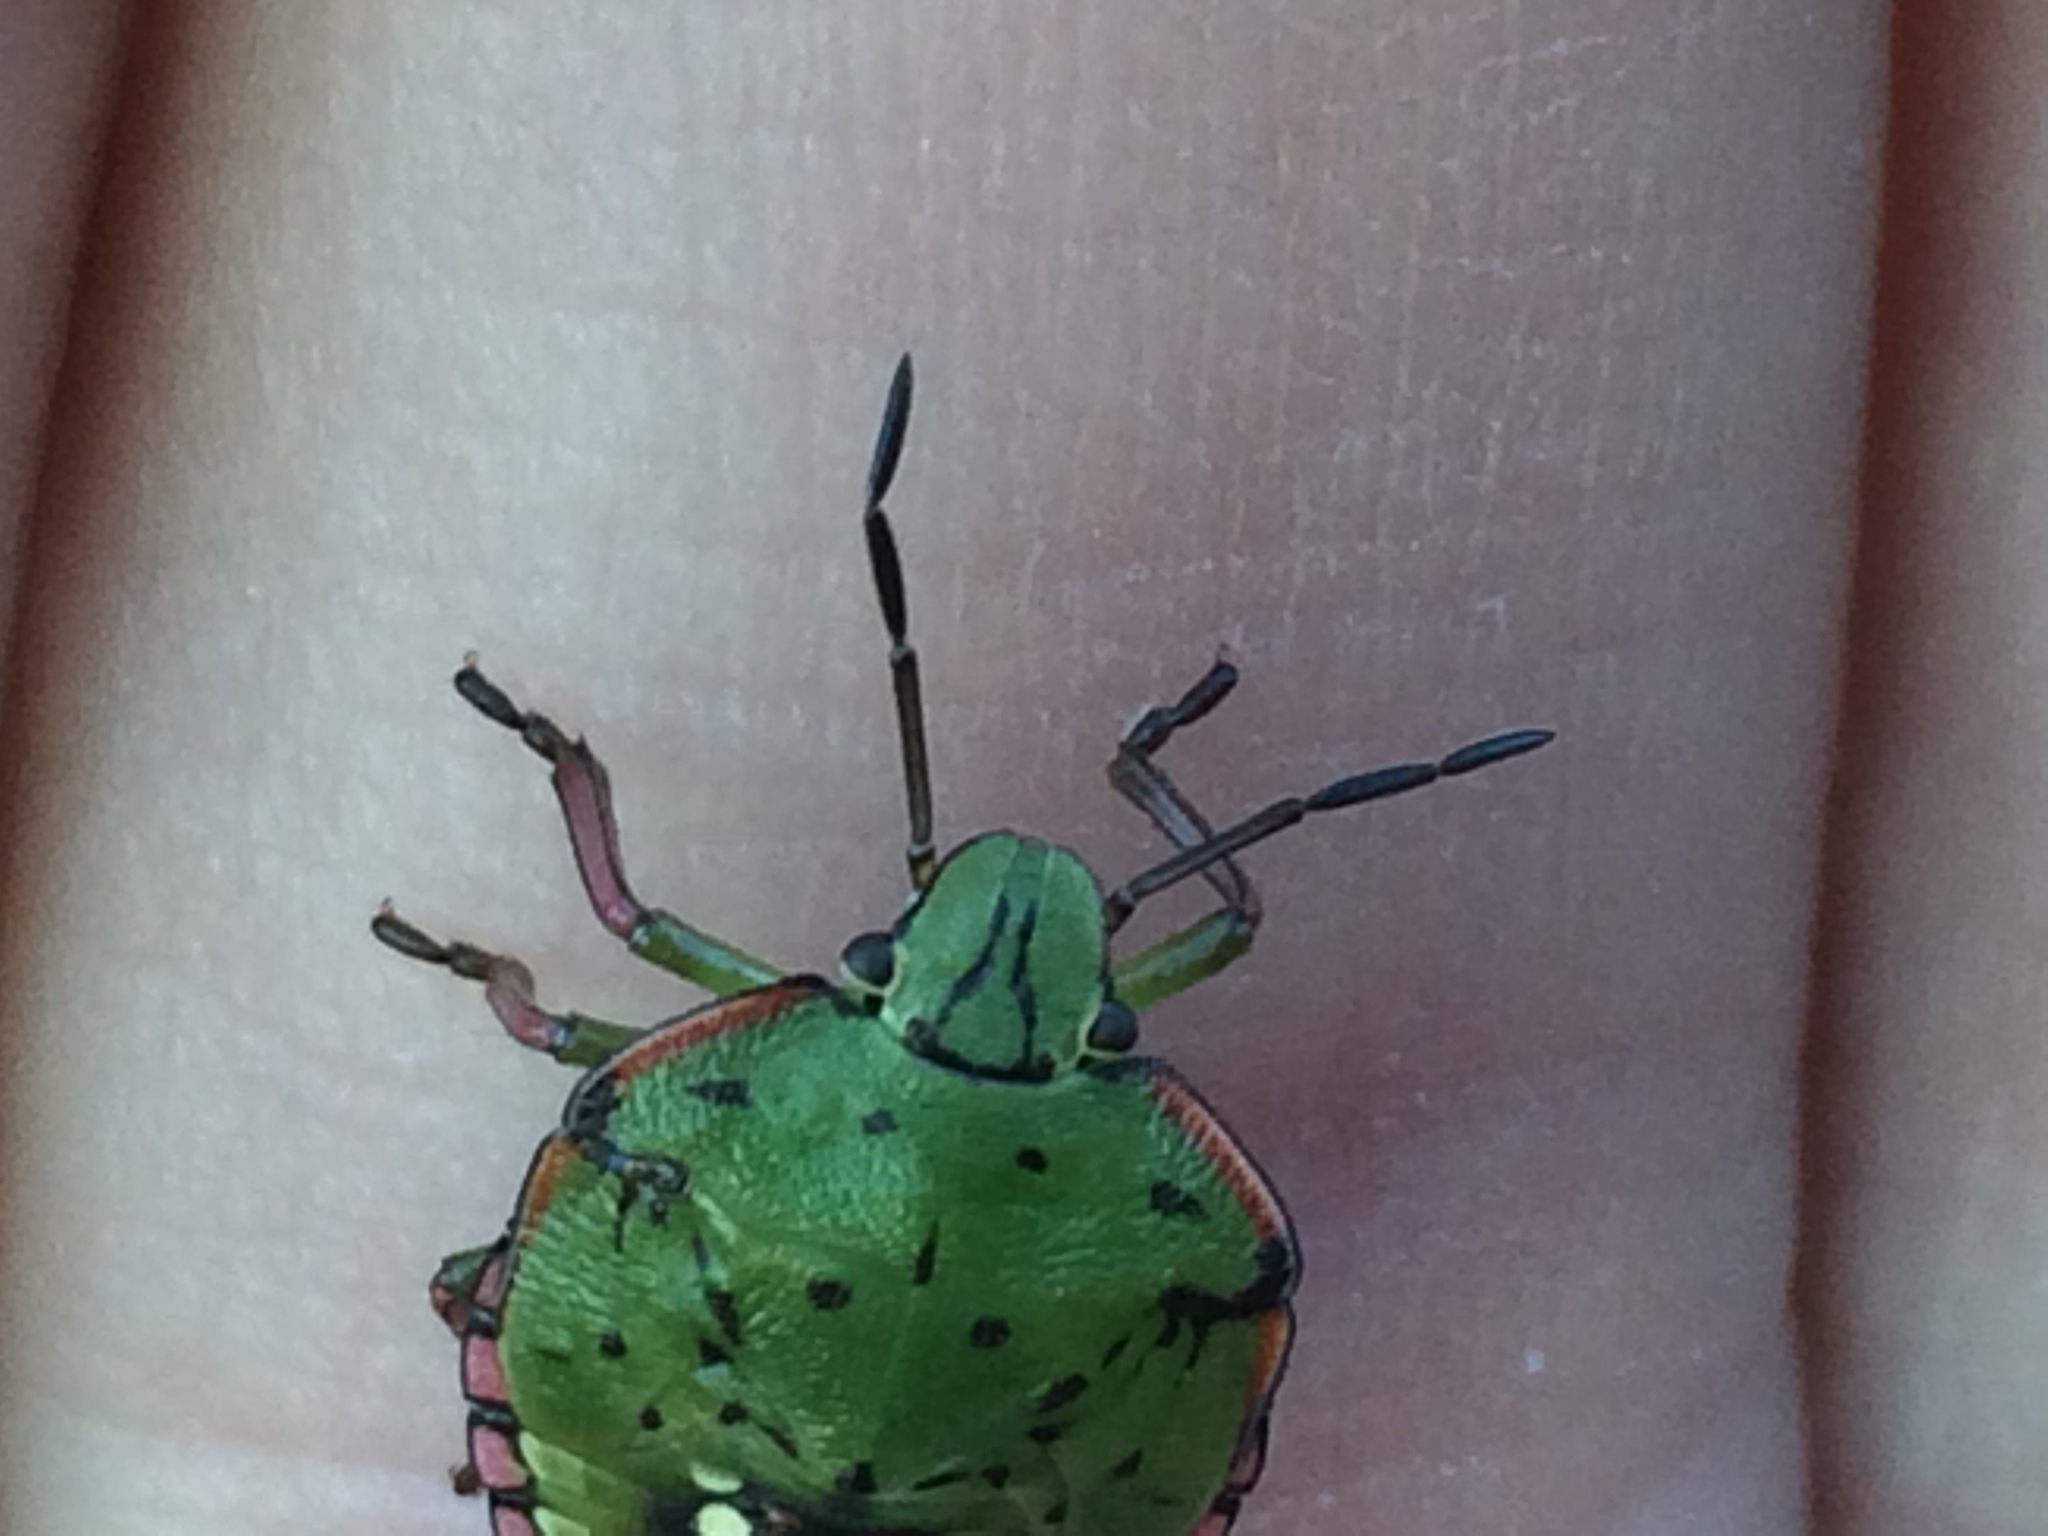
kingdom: Animalia
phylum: Arthropoda
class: Insecta
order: Hemiptera
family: Pentatomidae
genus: Nezara
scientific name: Nezara viridula
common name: Southern green stink bug
